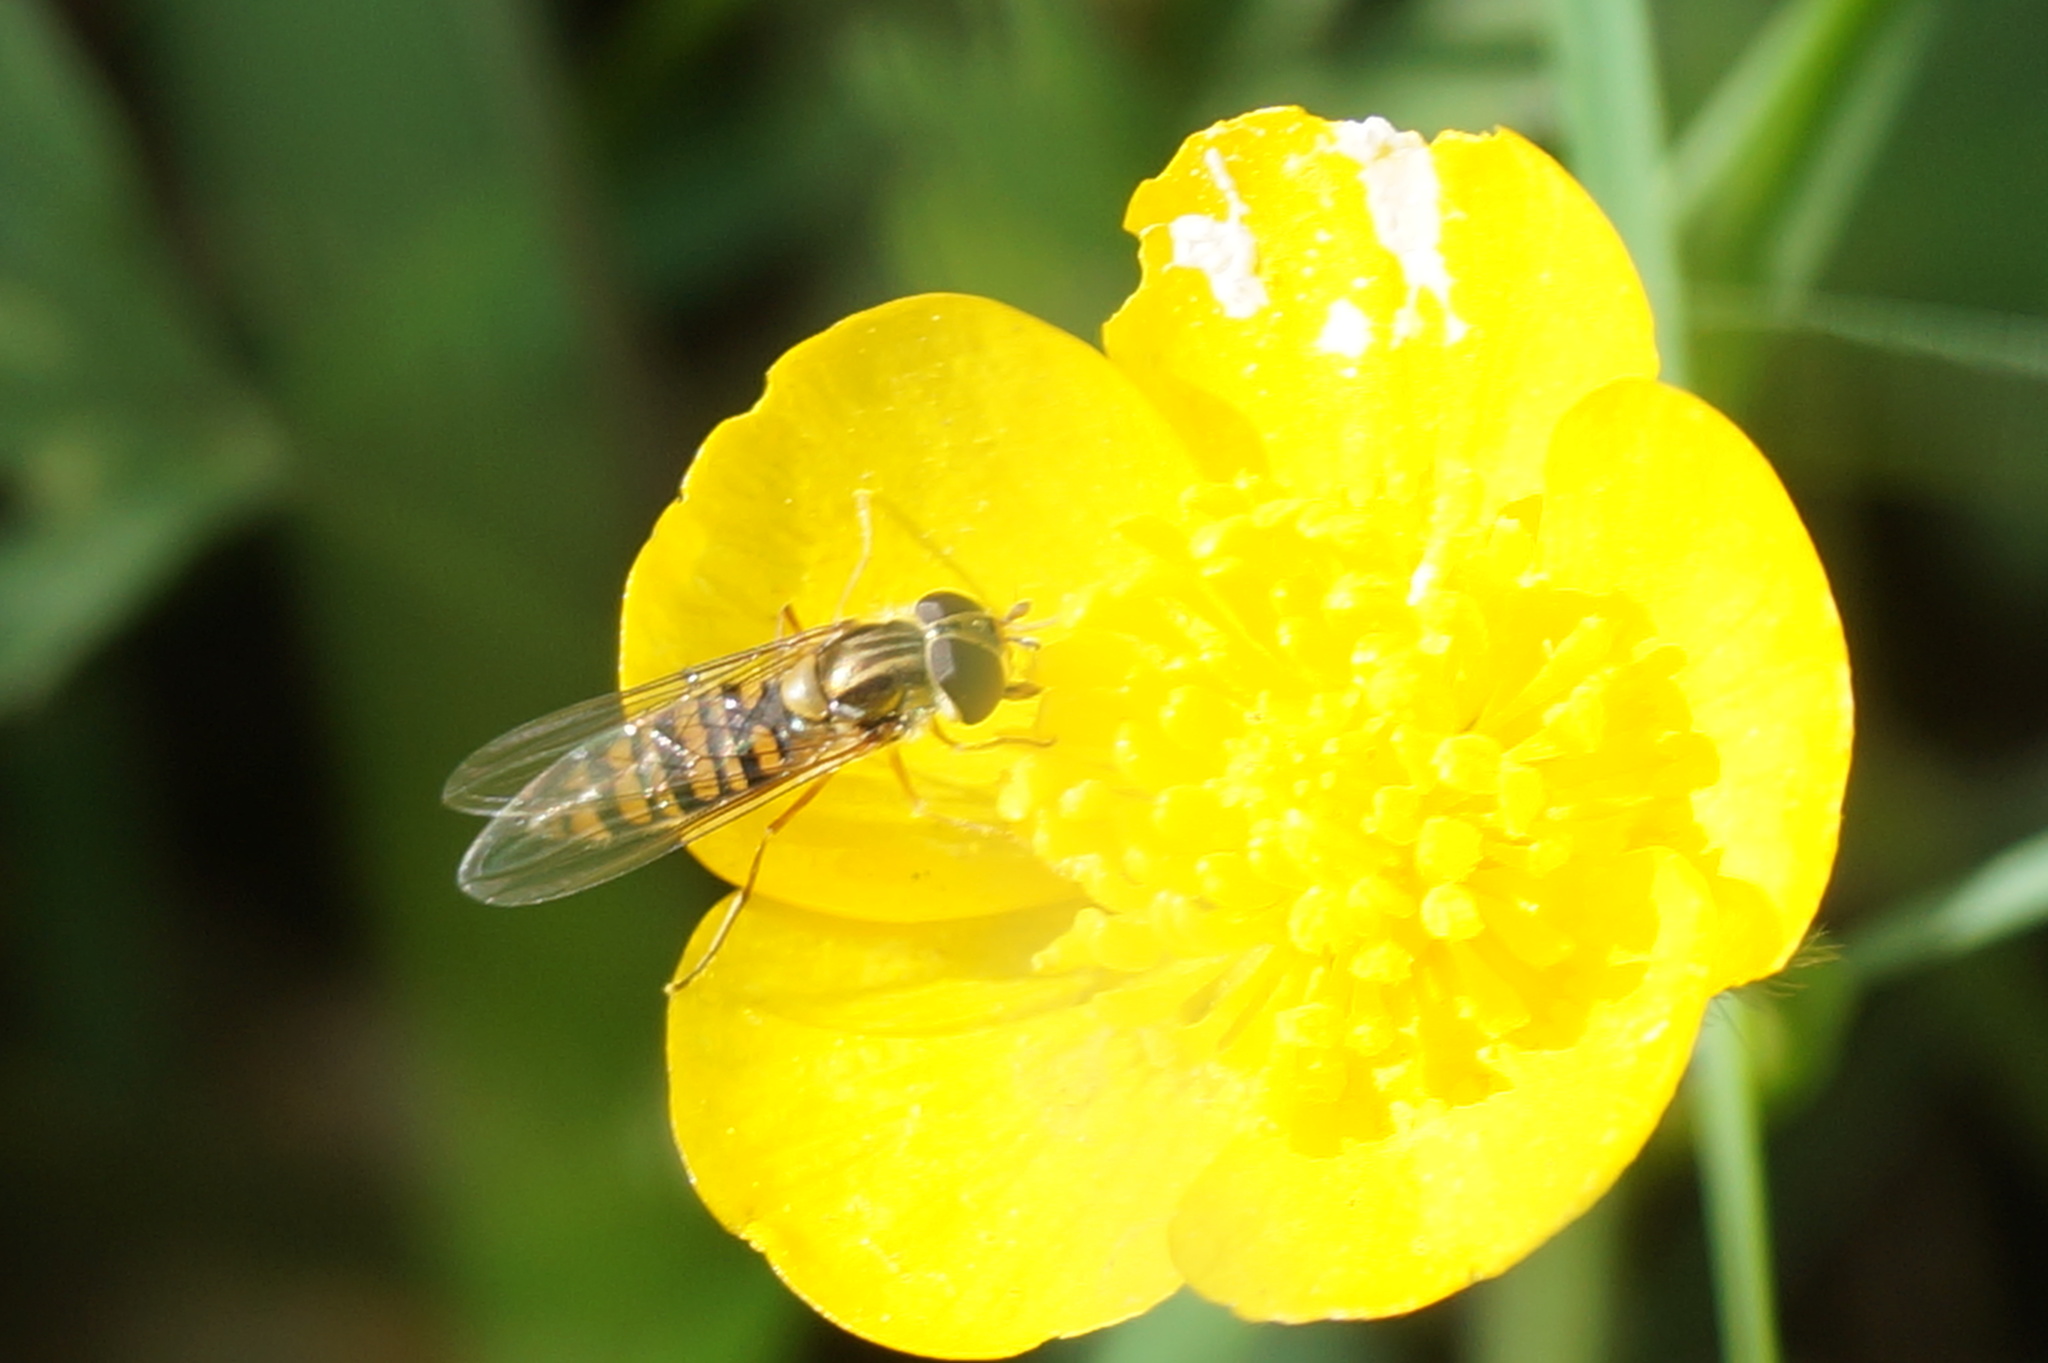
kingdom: Animalia
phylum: Arthropoda
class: Insecta
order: Diptera
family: Syrphidae
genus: Episyrphus
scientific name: Episyrphus balteatus
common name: Marmalade hoverfly
